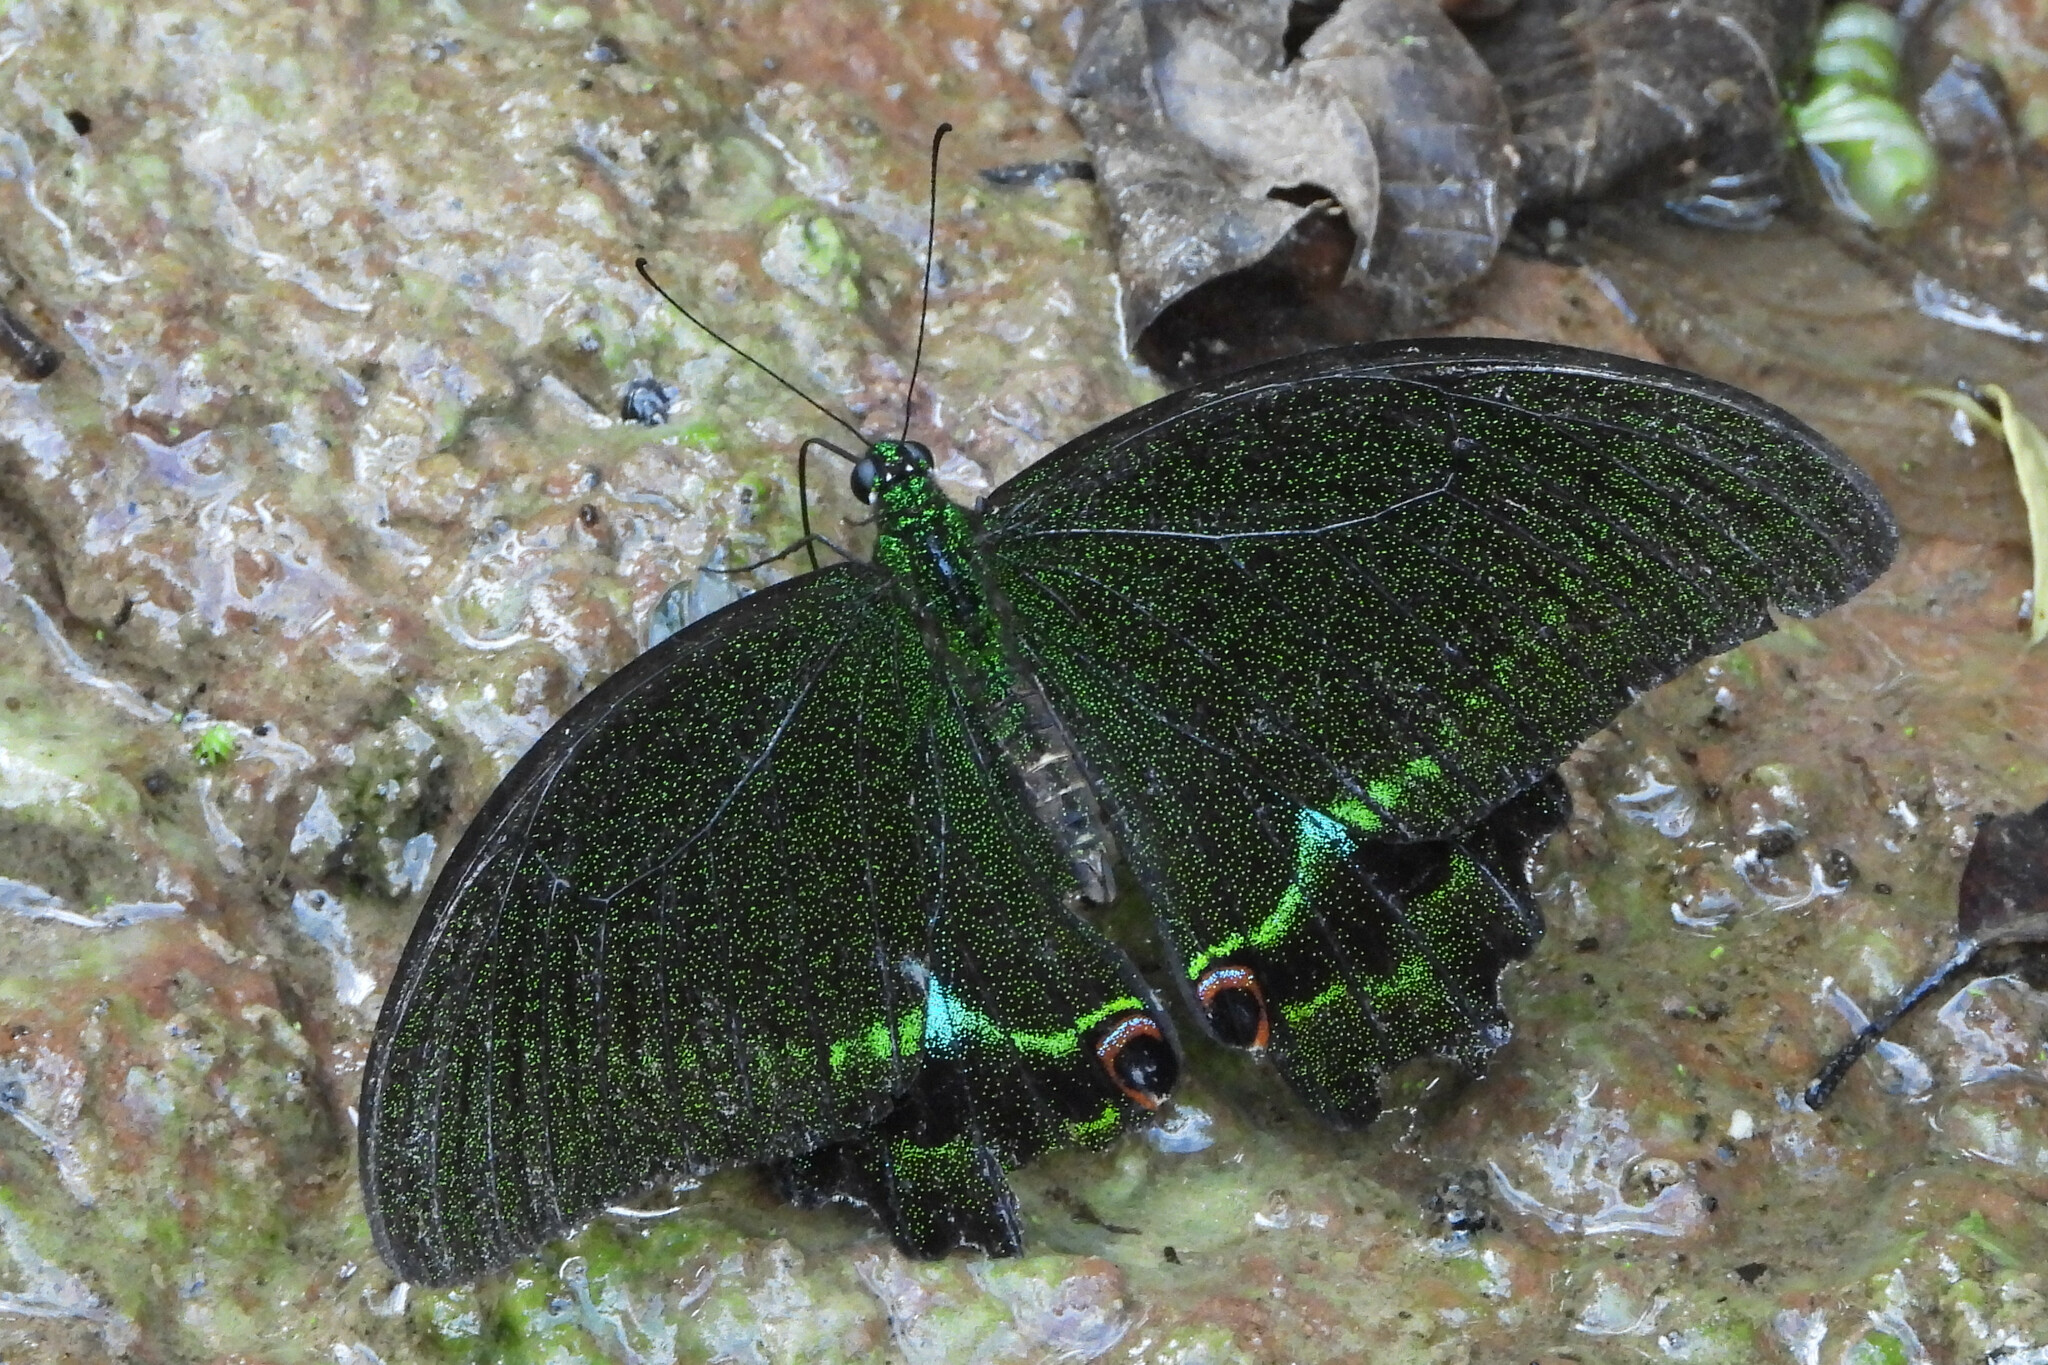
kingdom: Animalia
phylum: Arthropoda
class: Insecta
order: Lepidoptera
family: Papilionidae
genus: Papilio
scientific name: Papilio paris
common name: Paris peacock
